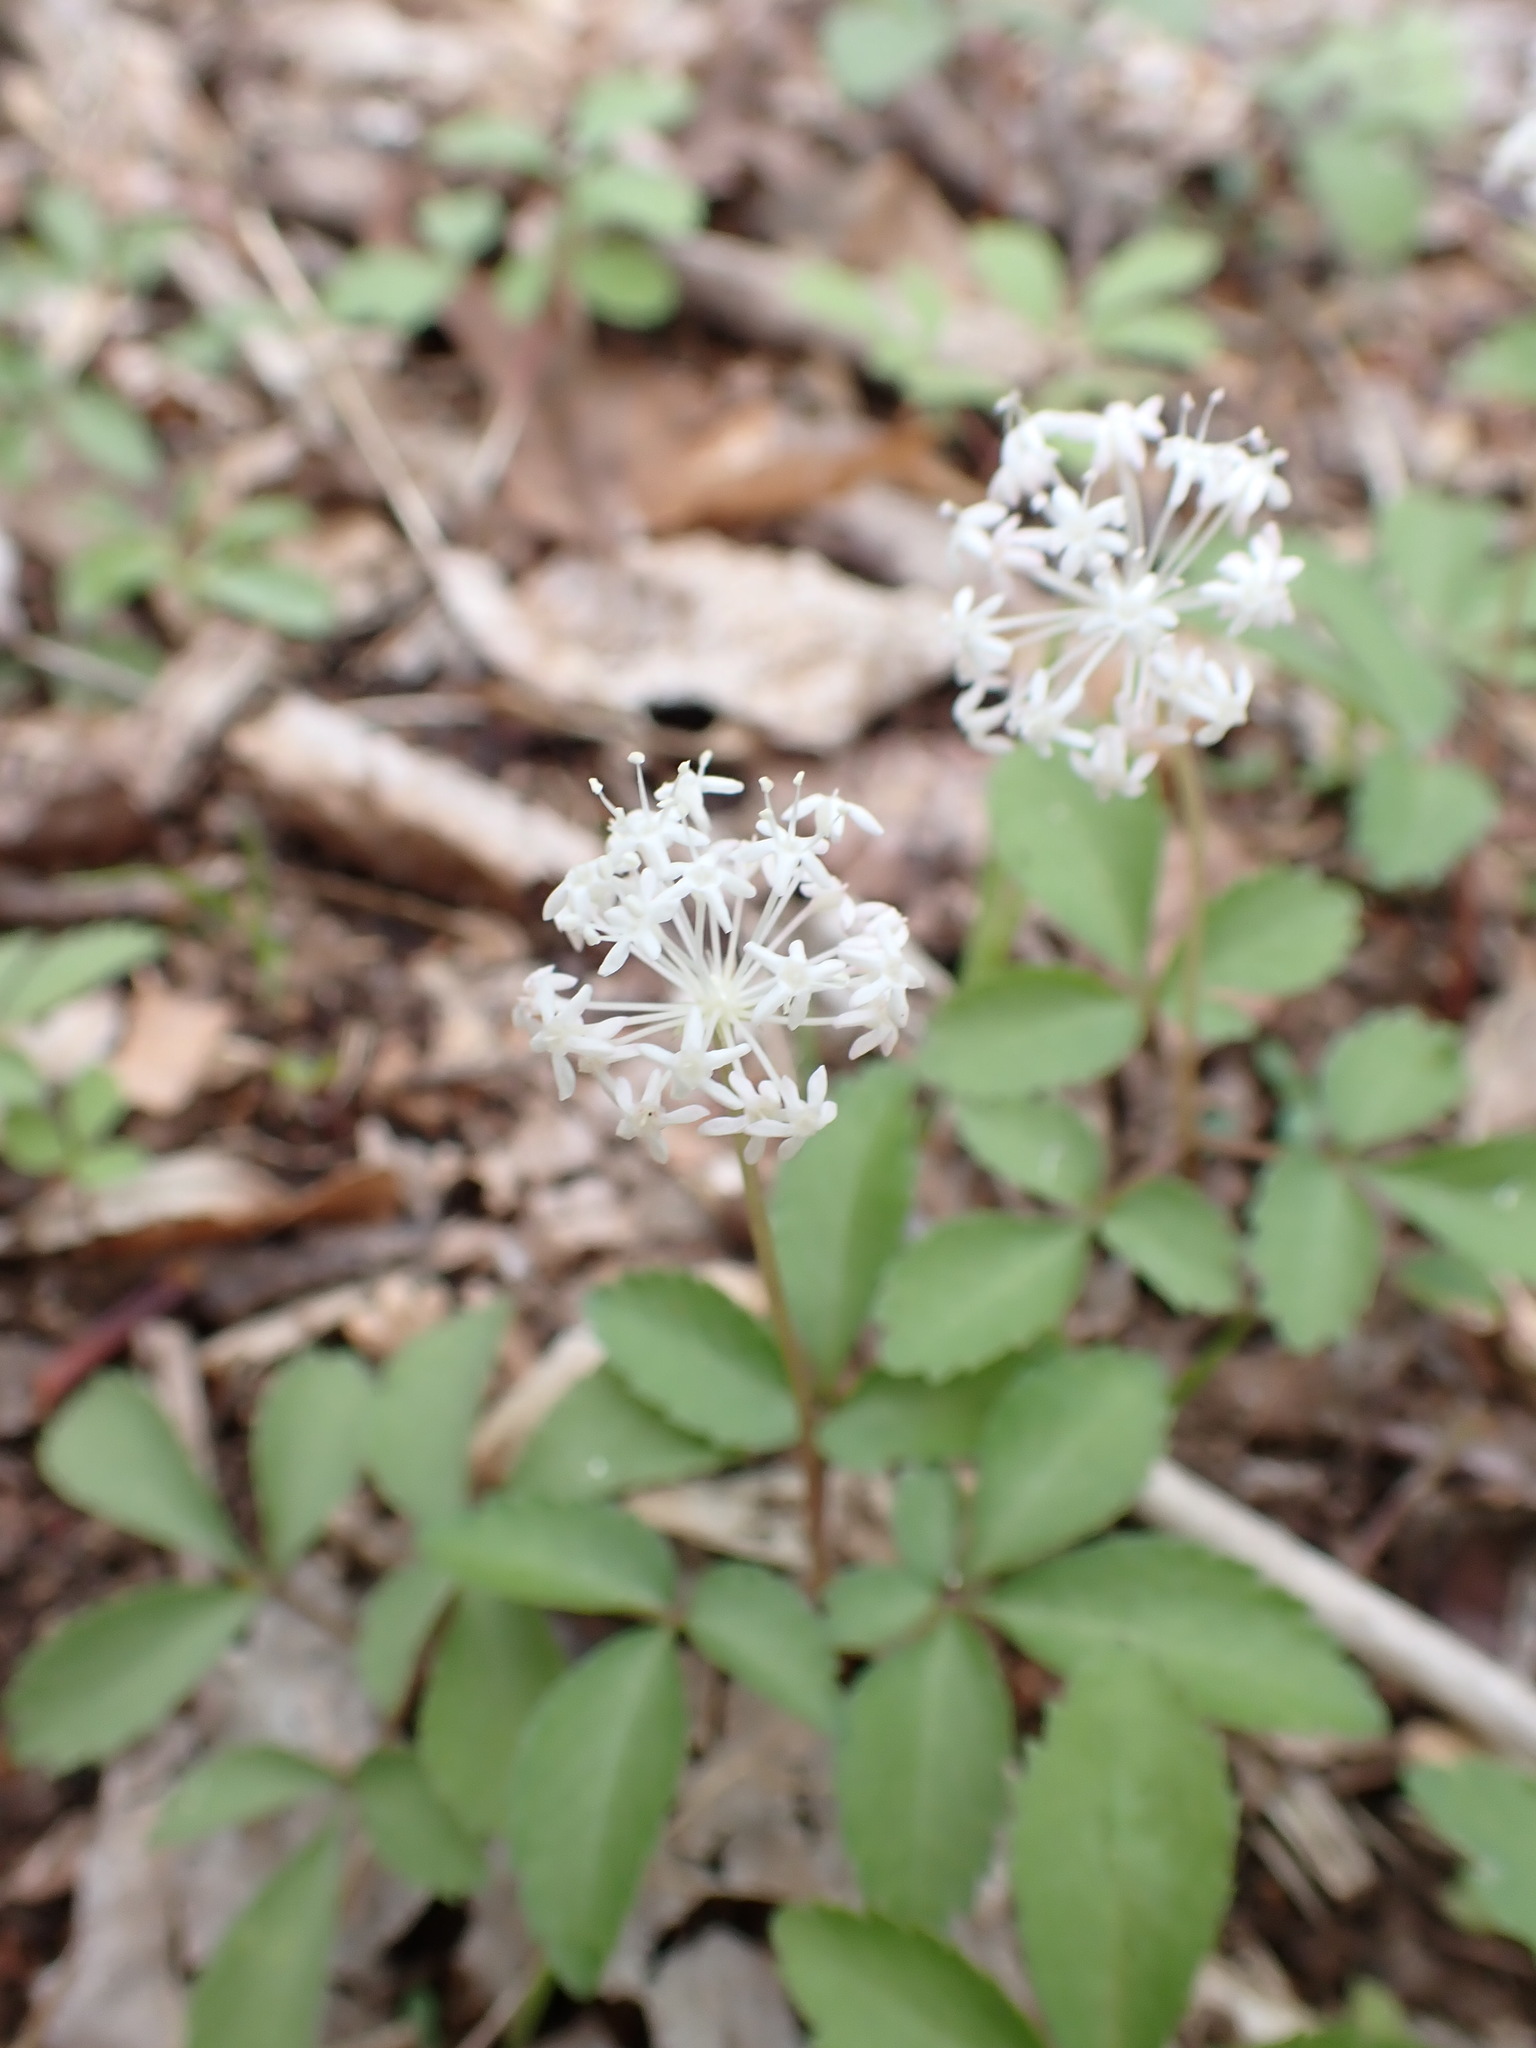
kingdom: Plantae
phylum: Tracheophyta
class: Magnoliopsida
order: Apiales
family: Araliaceae
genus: Panax
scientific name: Panax trifolius
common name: Dwarf ginseng
